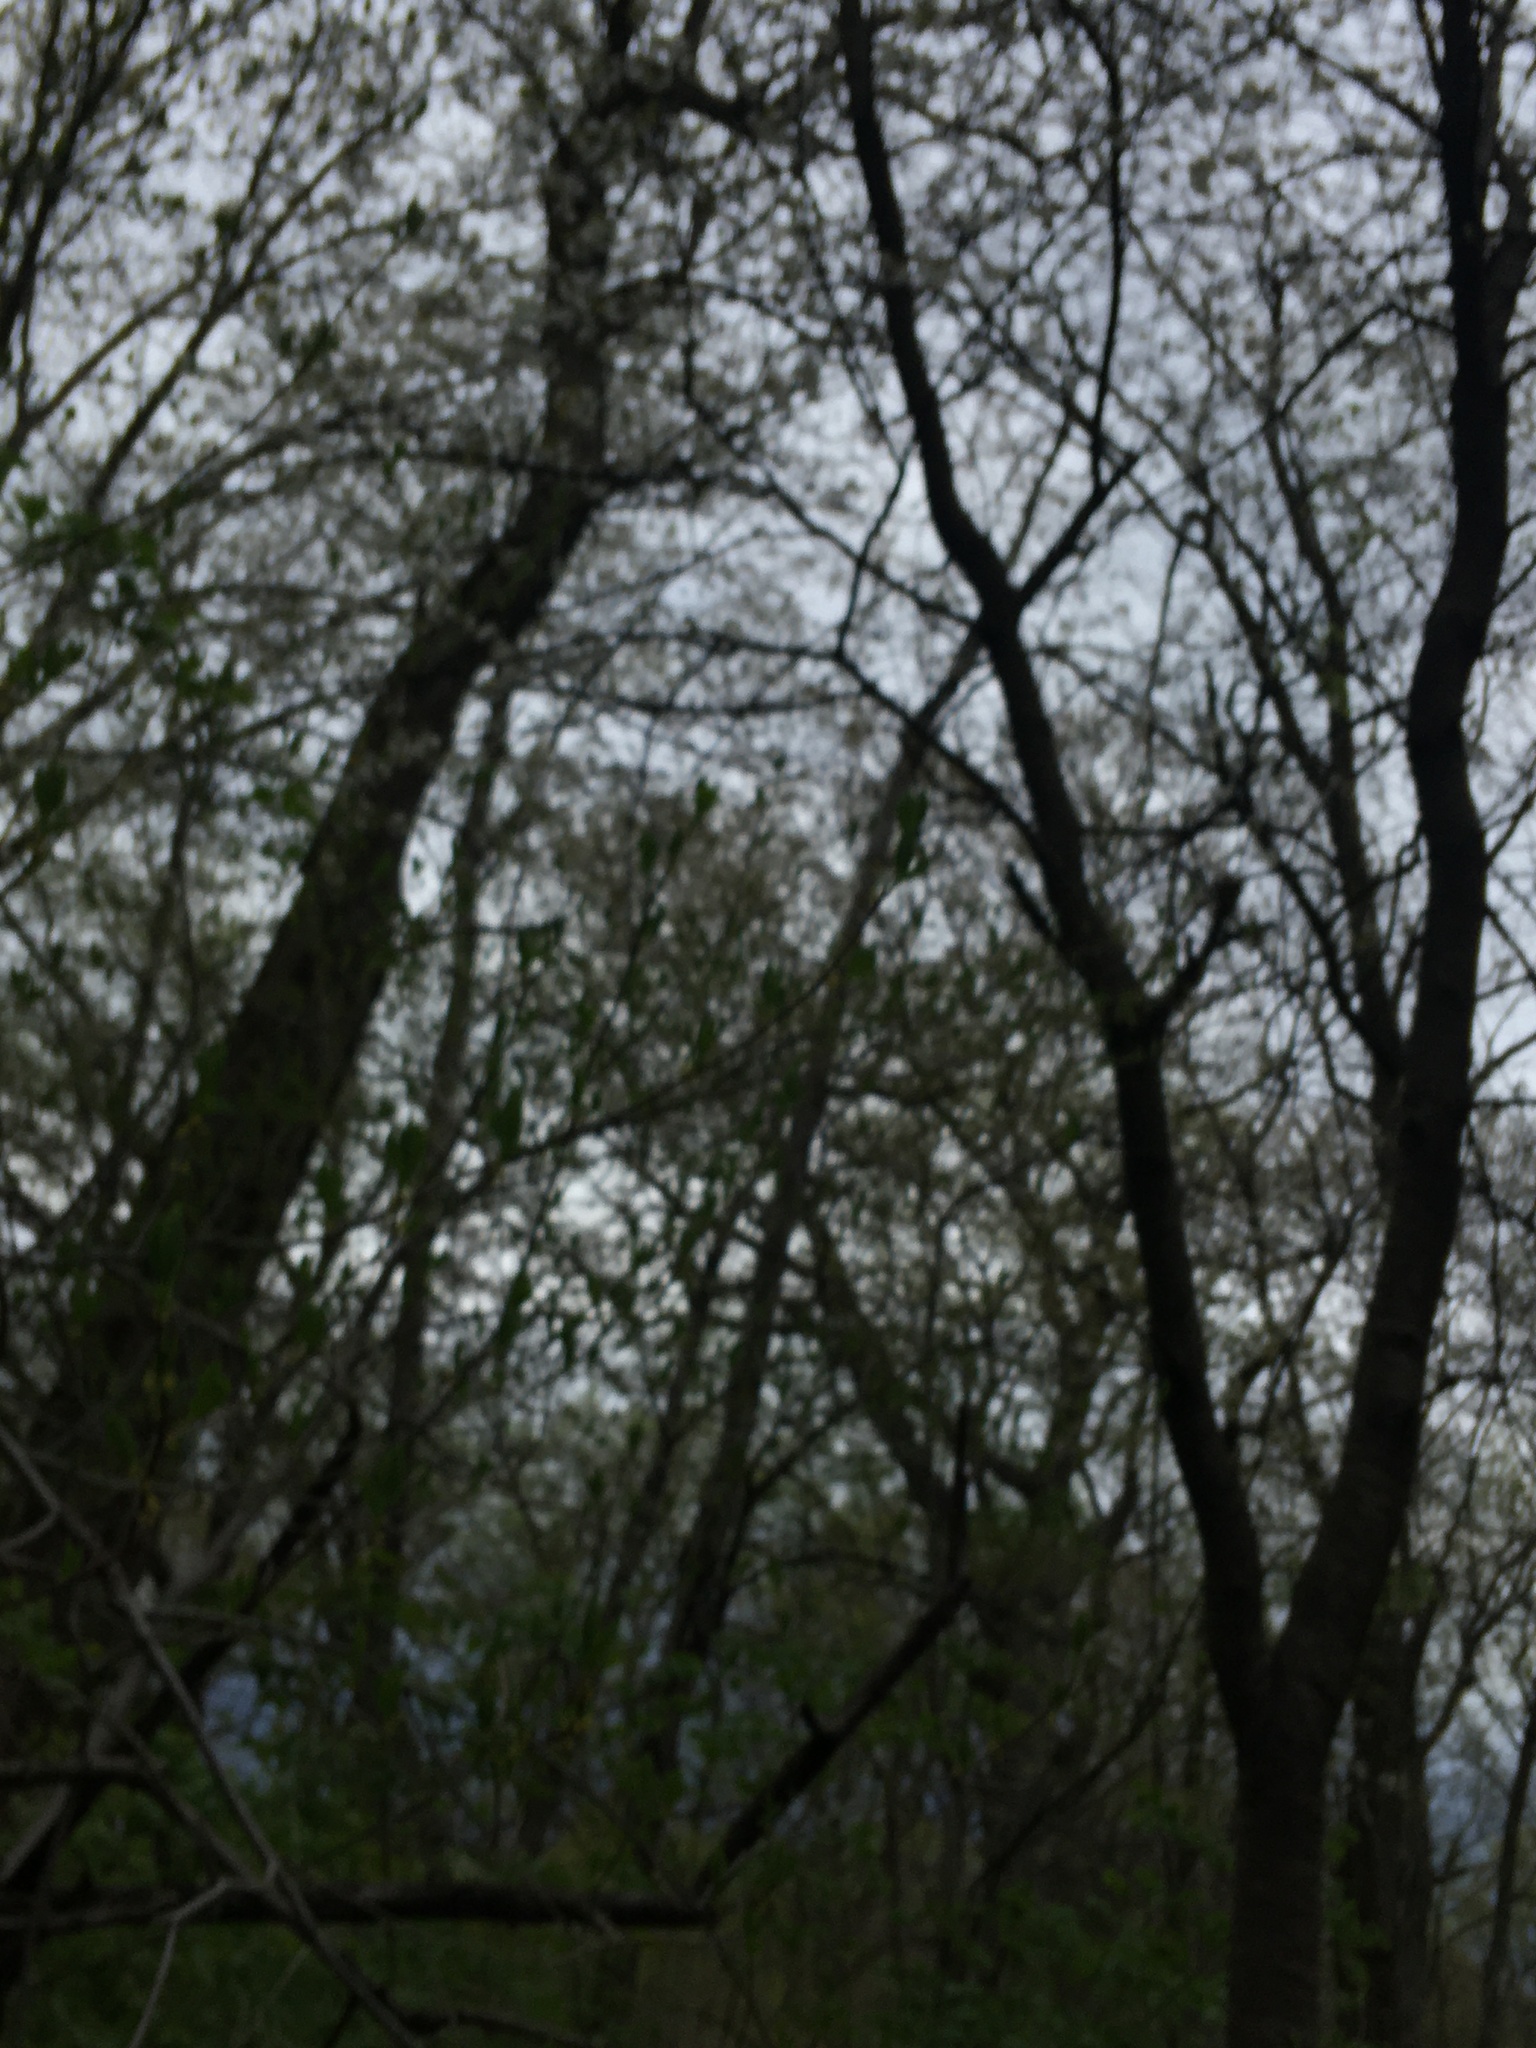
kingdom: Plantae
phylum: Tracheophyta
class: Magnoliopsida
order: Rosales
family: Rosaceae
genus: Prunus
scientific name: Prunus avium
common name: Sweet cherry
